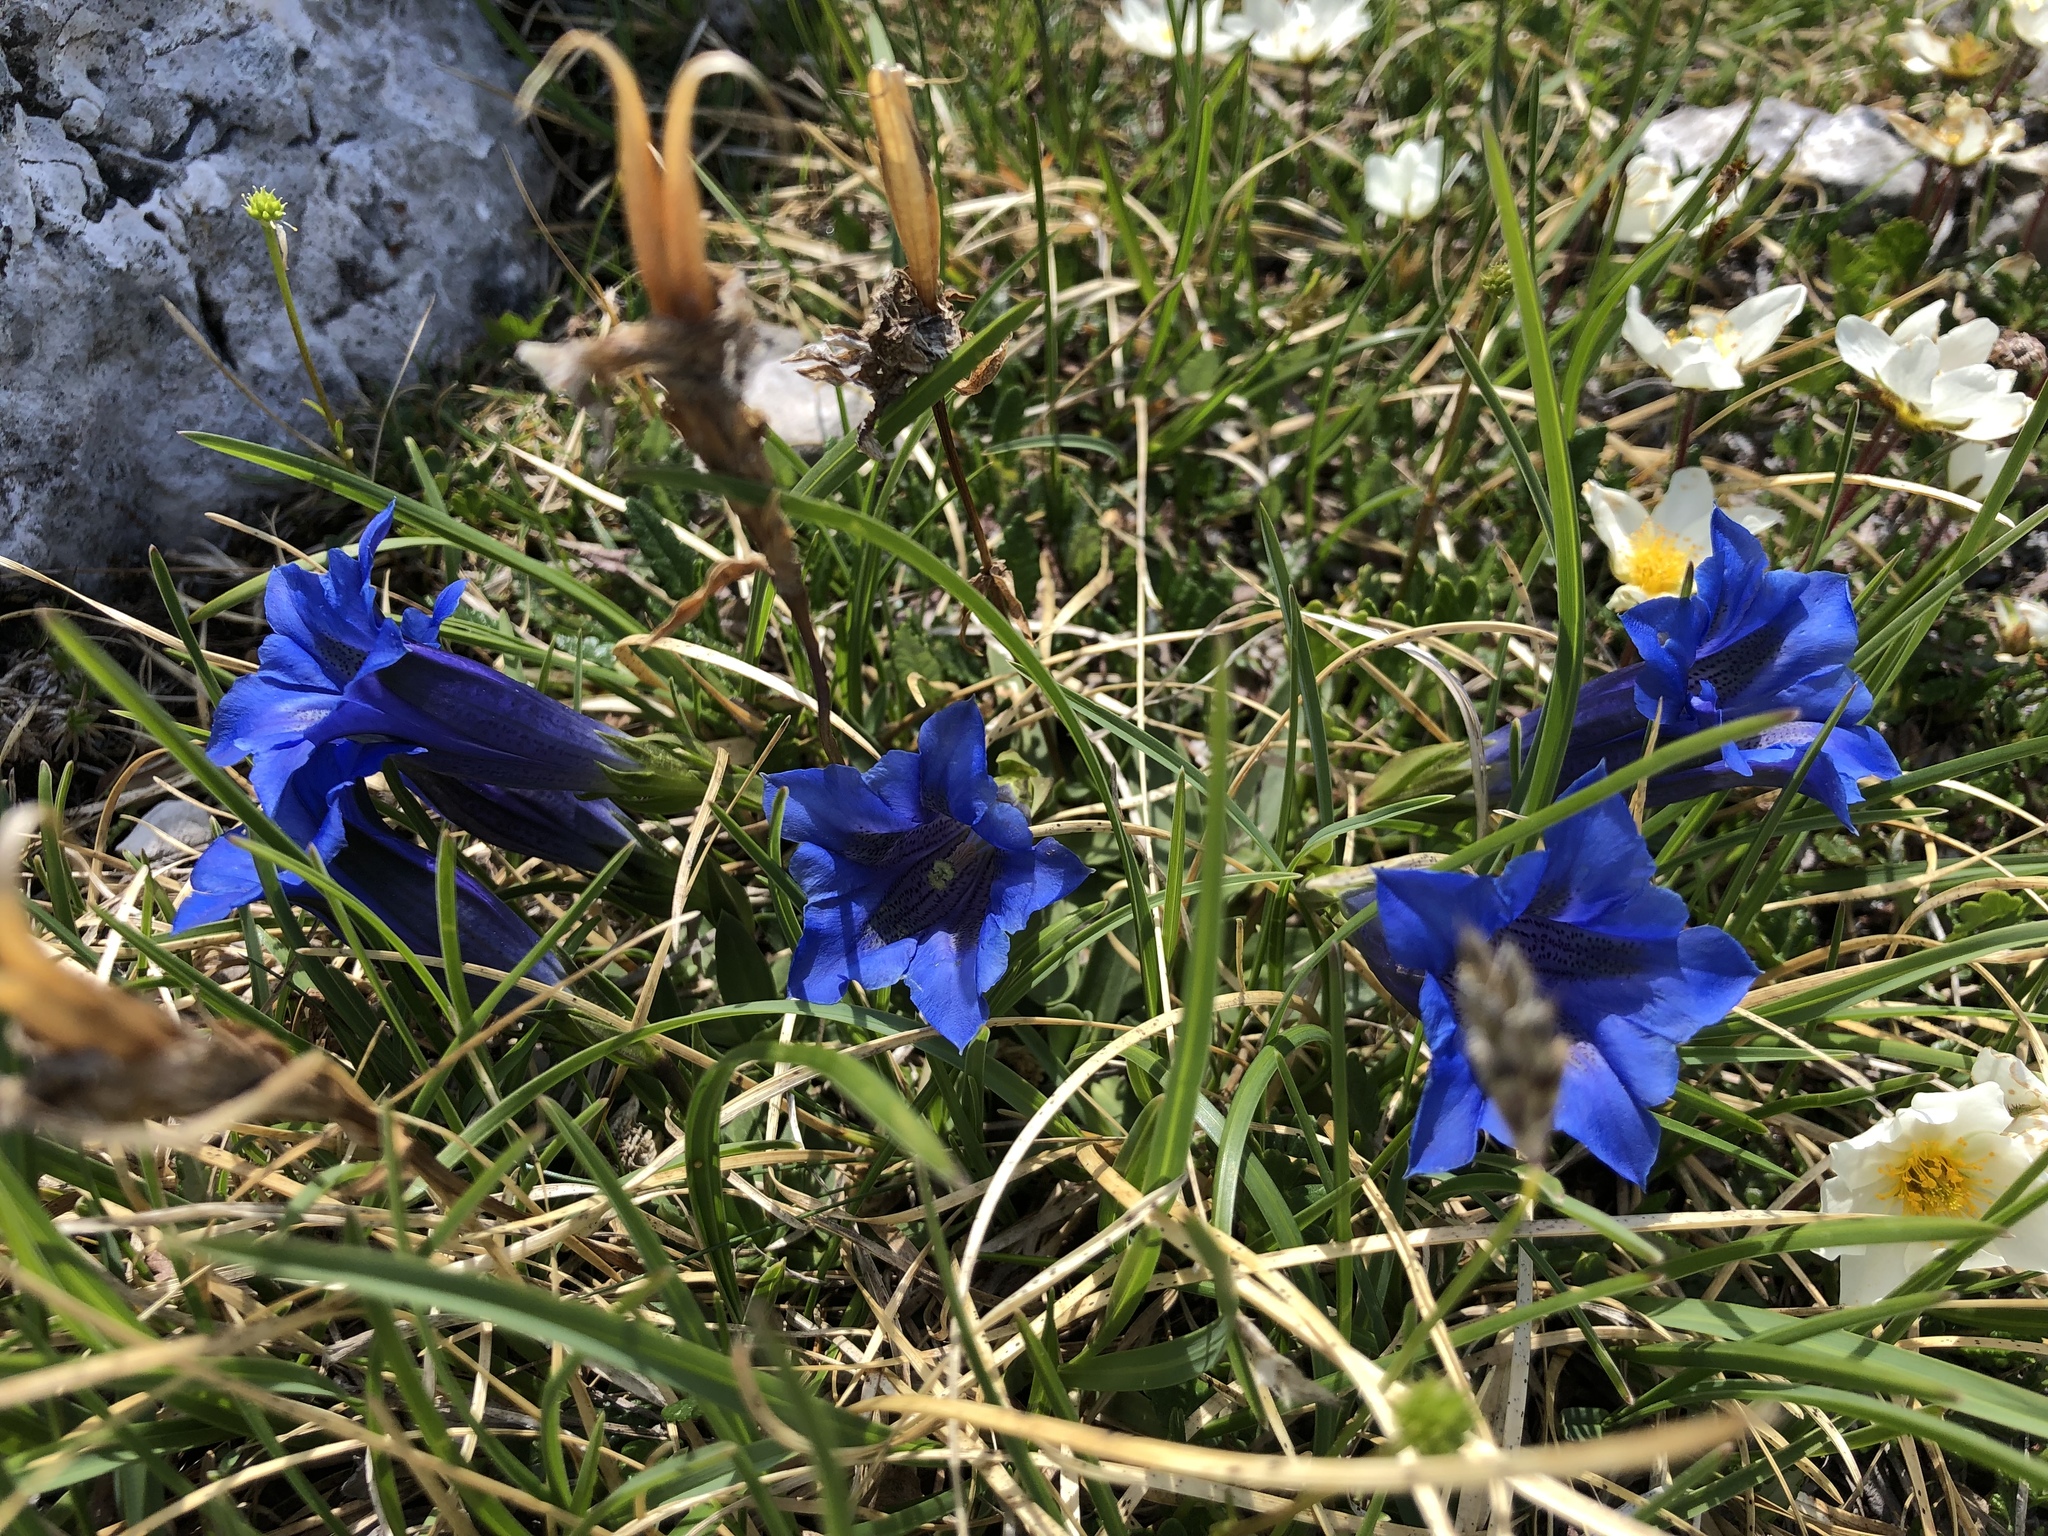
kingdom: Plantae
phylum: Tracheophyta
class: Magnoliopsida
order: Gentianales
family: Gentianaceae
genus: Gentiana
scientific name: Gentiana clusii
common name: Trumpet gentian
